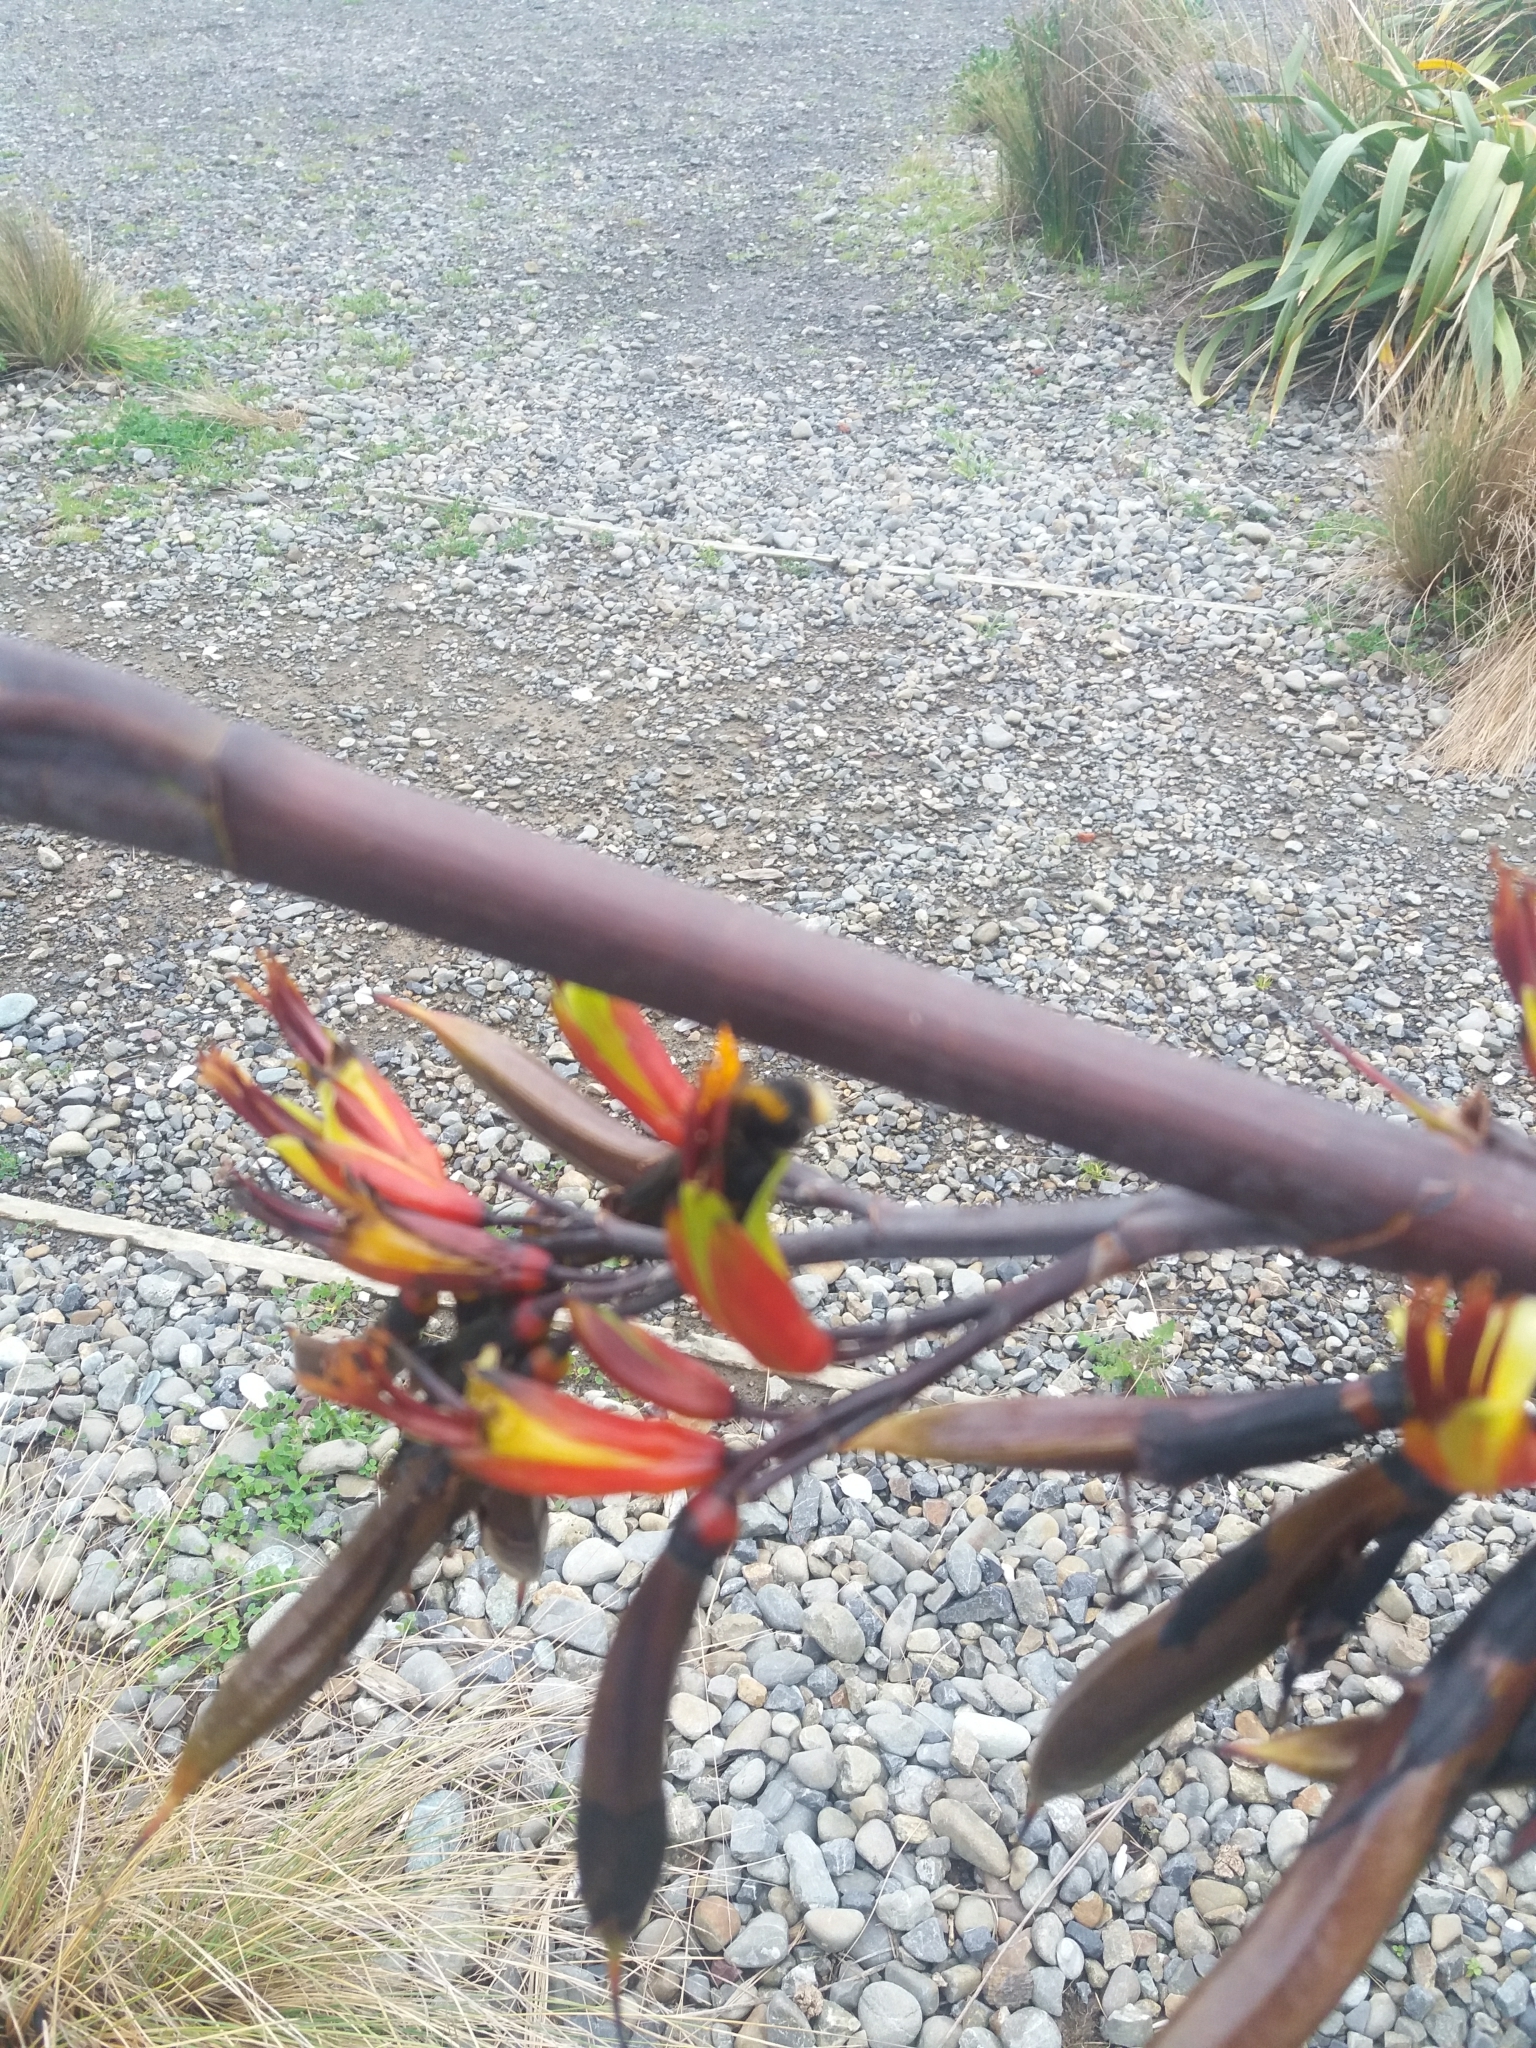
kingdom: Animalia
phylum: Arthropoda
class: Insecta
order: Hymenoptera
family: Apidae
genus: Bombus
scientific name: Bombus terrestris
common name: Buff-tailed bumblebee
